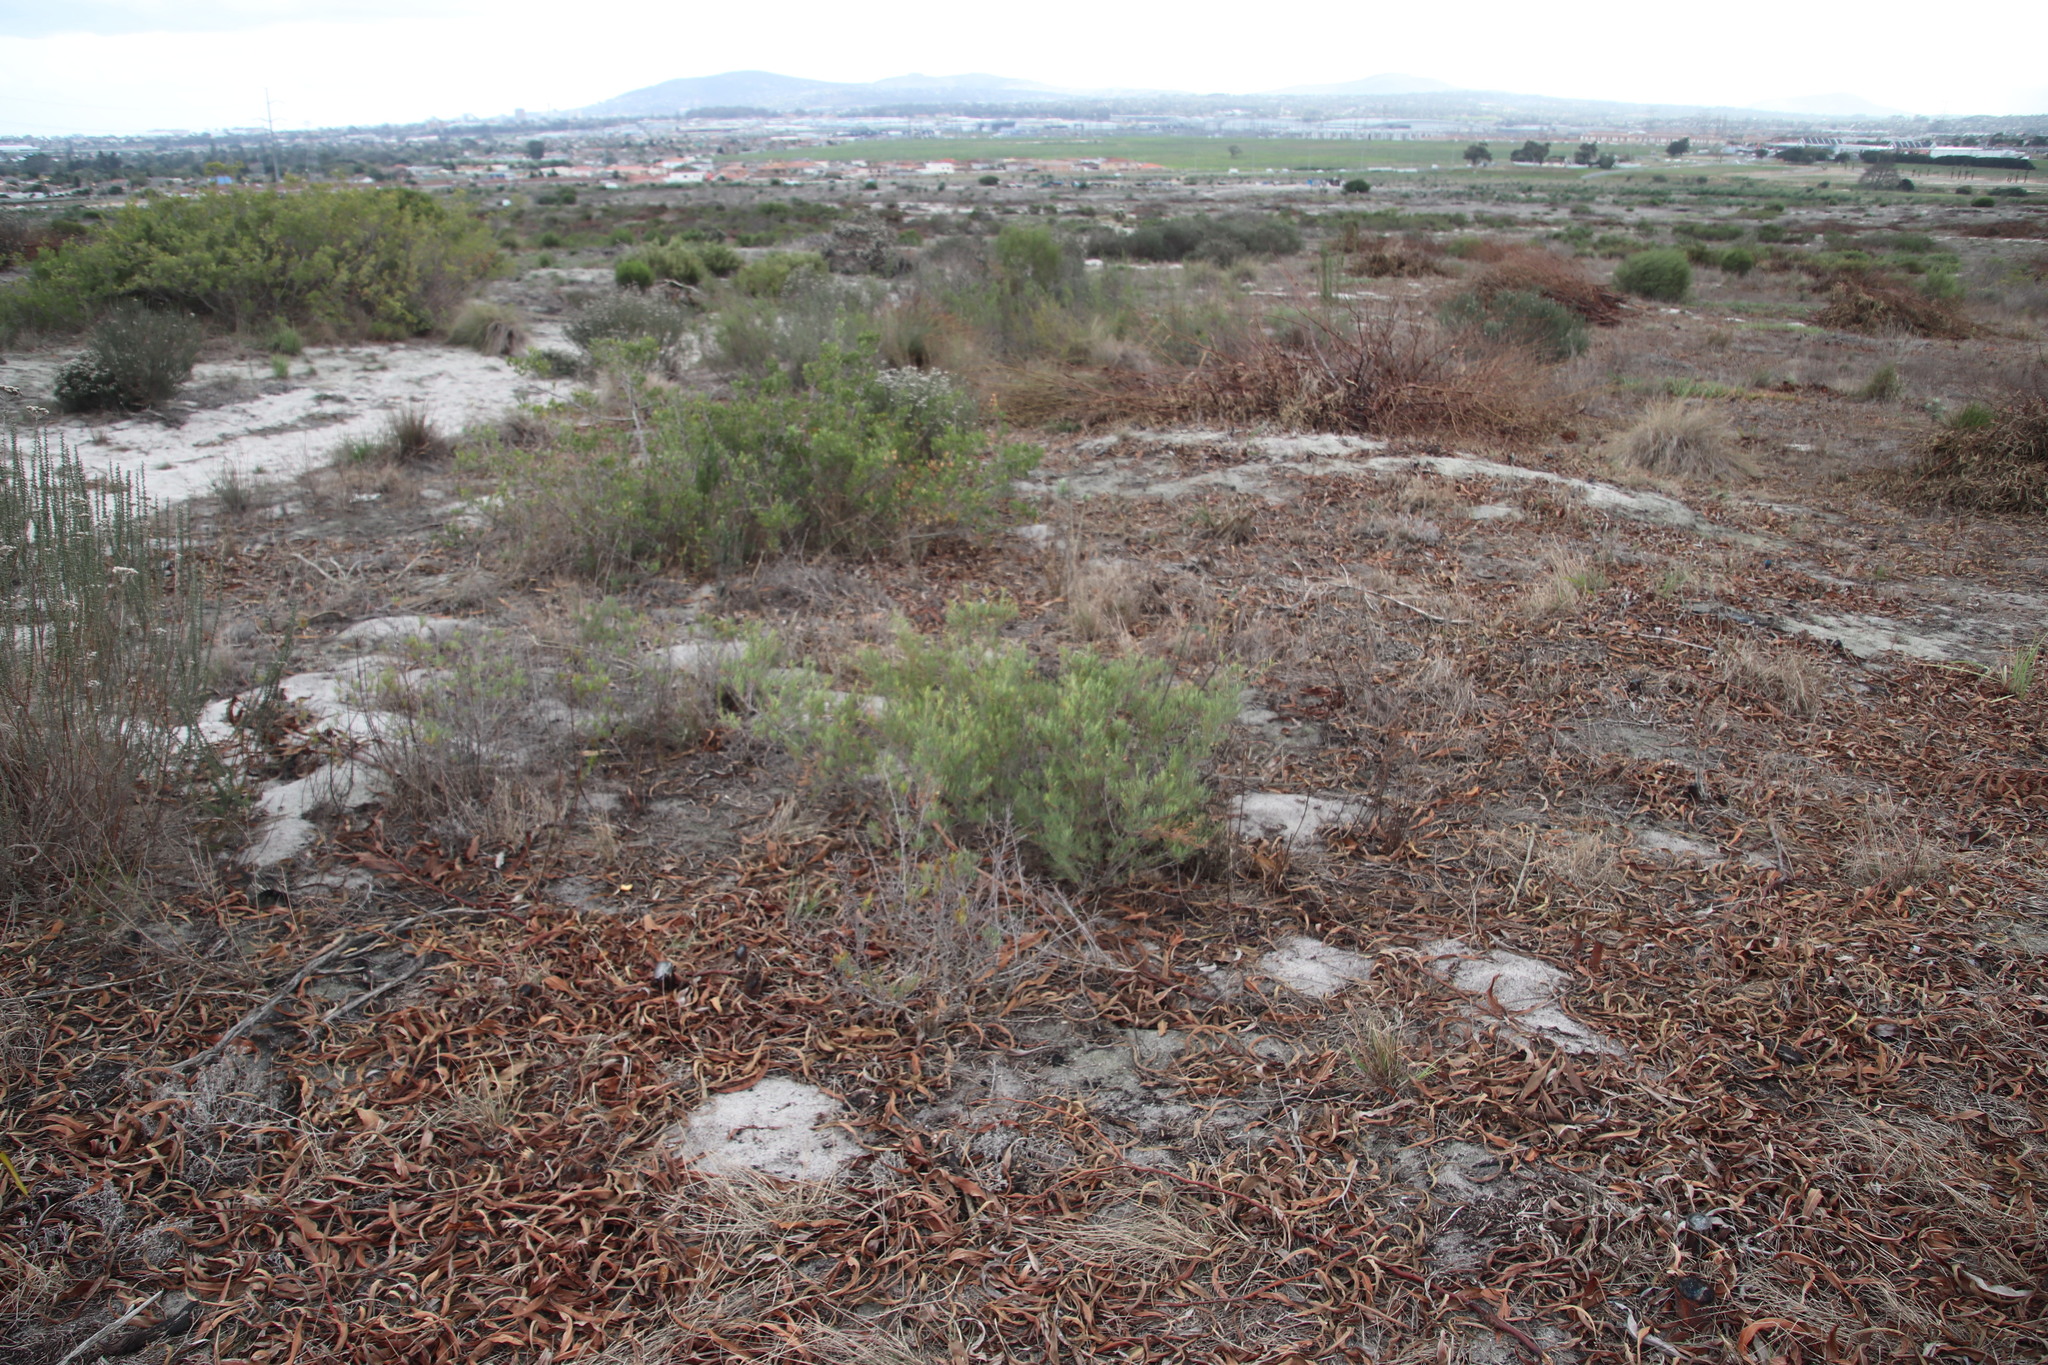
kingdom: Plantae
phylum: Tracheophyta
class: Magnoliopsida
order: Sapindales
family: Anacardiaceae
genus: Searsia
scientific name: Searsia rosmarinifolia
